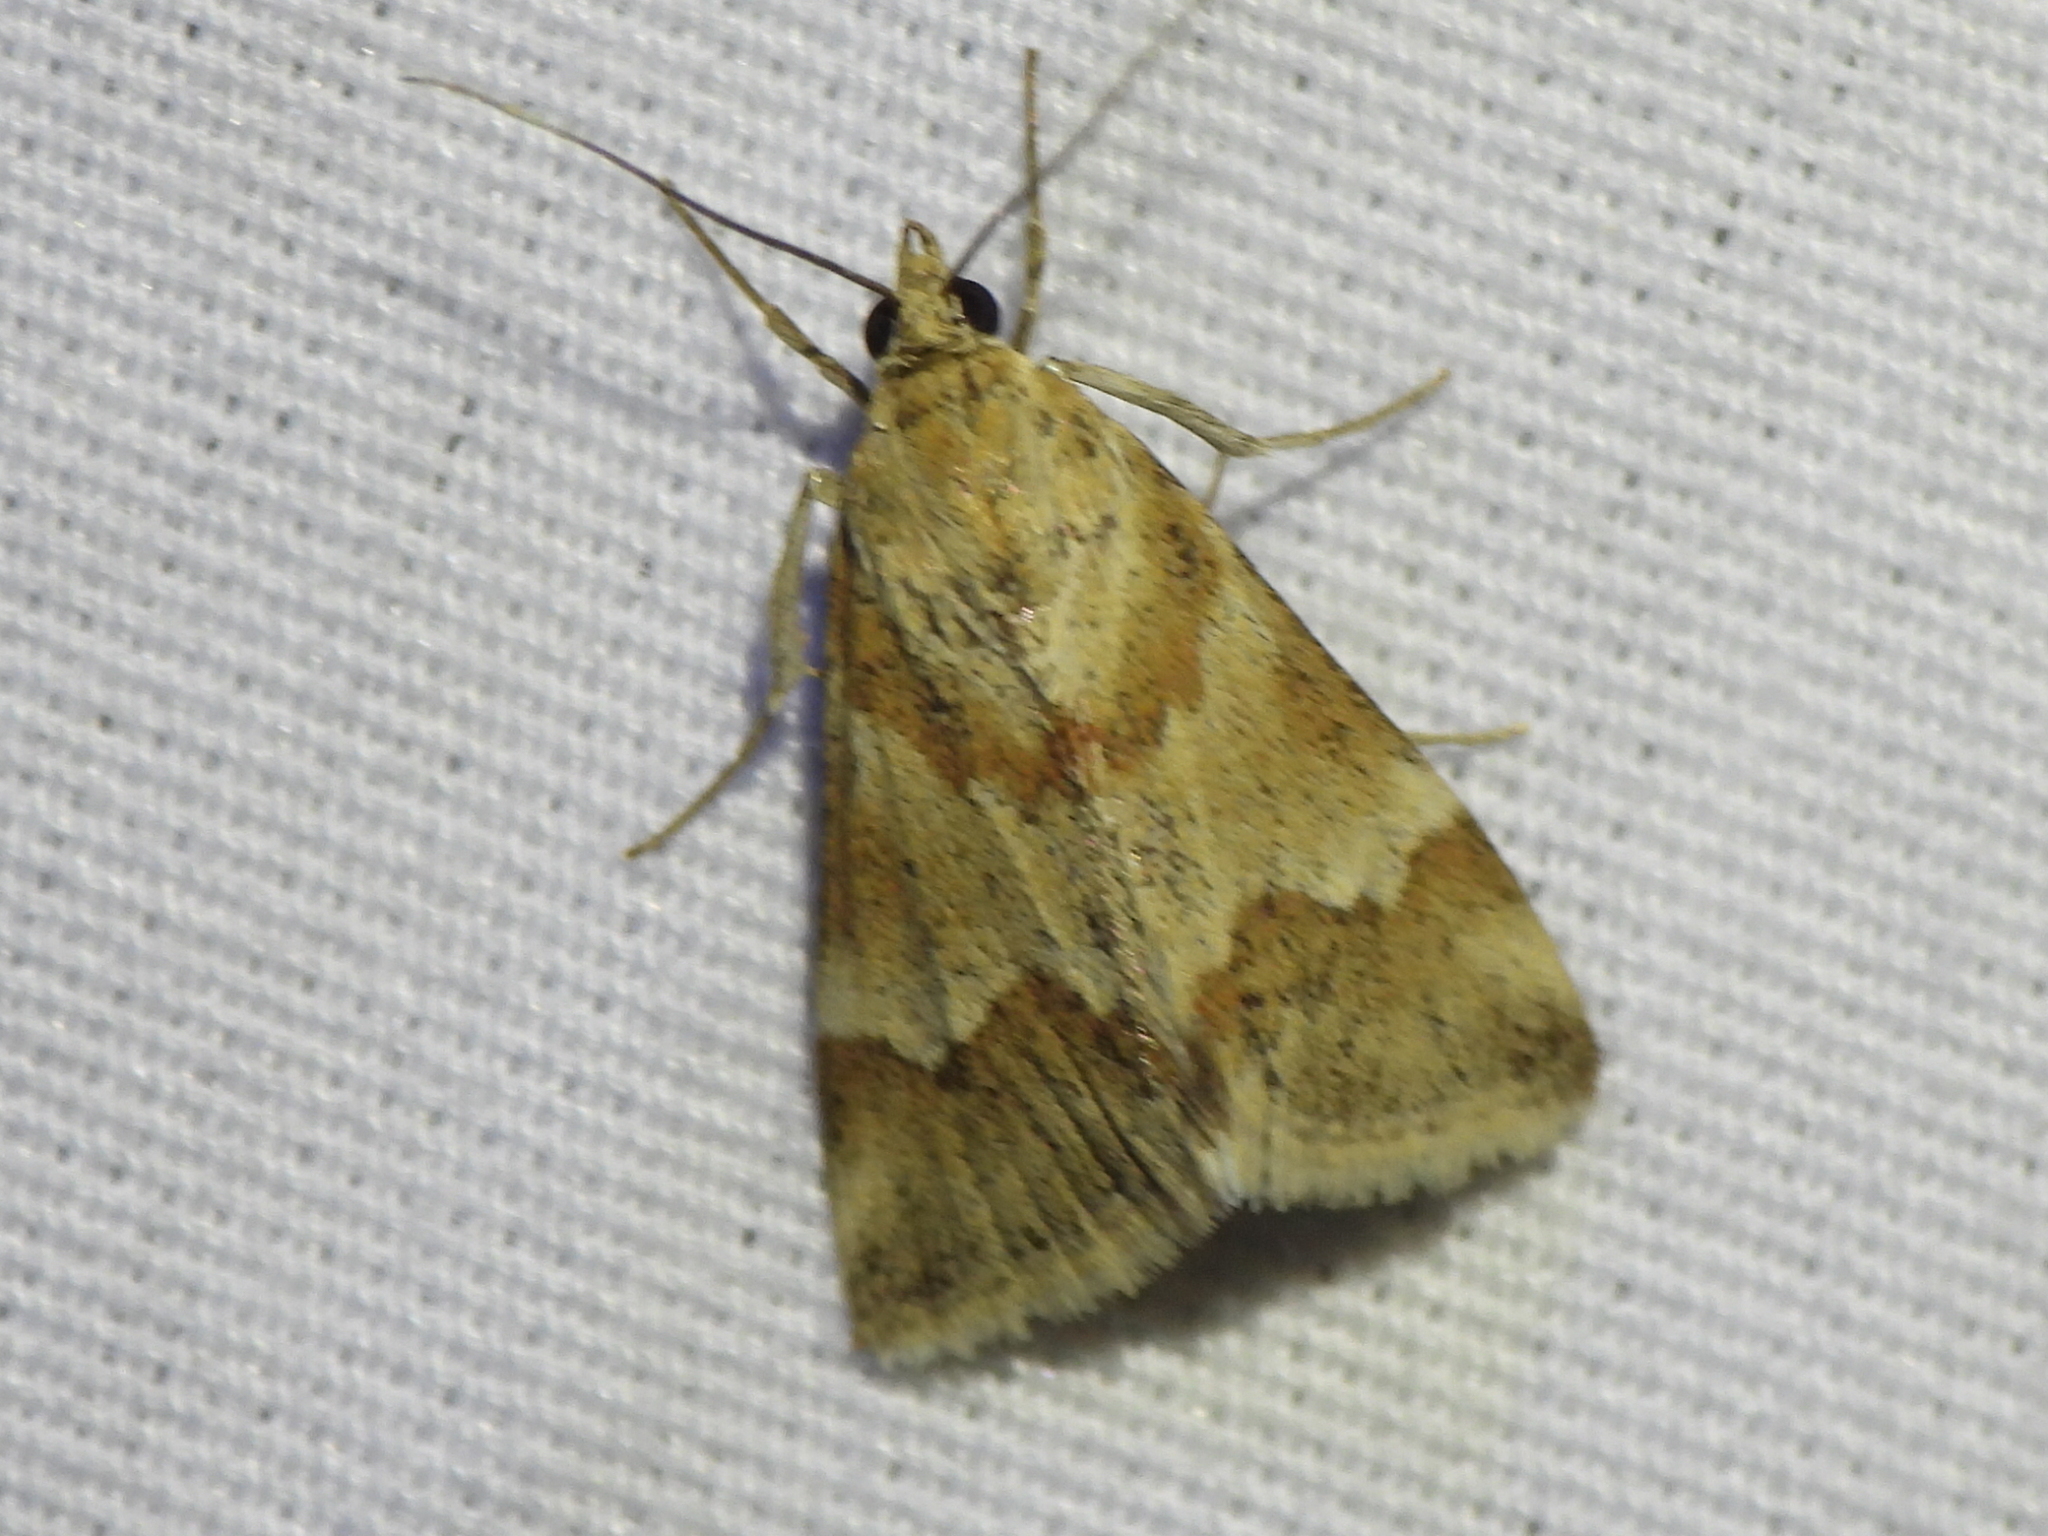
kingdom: Animalia
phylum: Arthropoda
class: Insecta
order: Lepidoptera
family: Crambidae
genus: Noctuelia
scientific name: Noctuelia Mimoschinia rufofascialis
